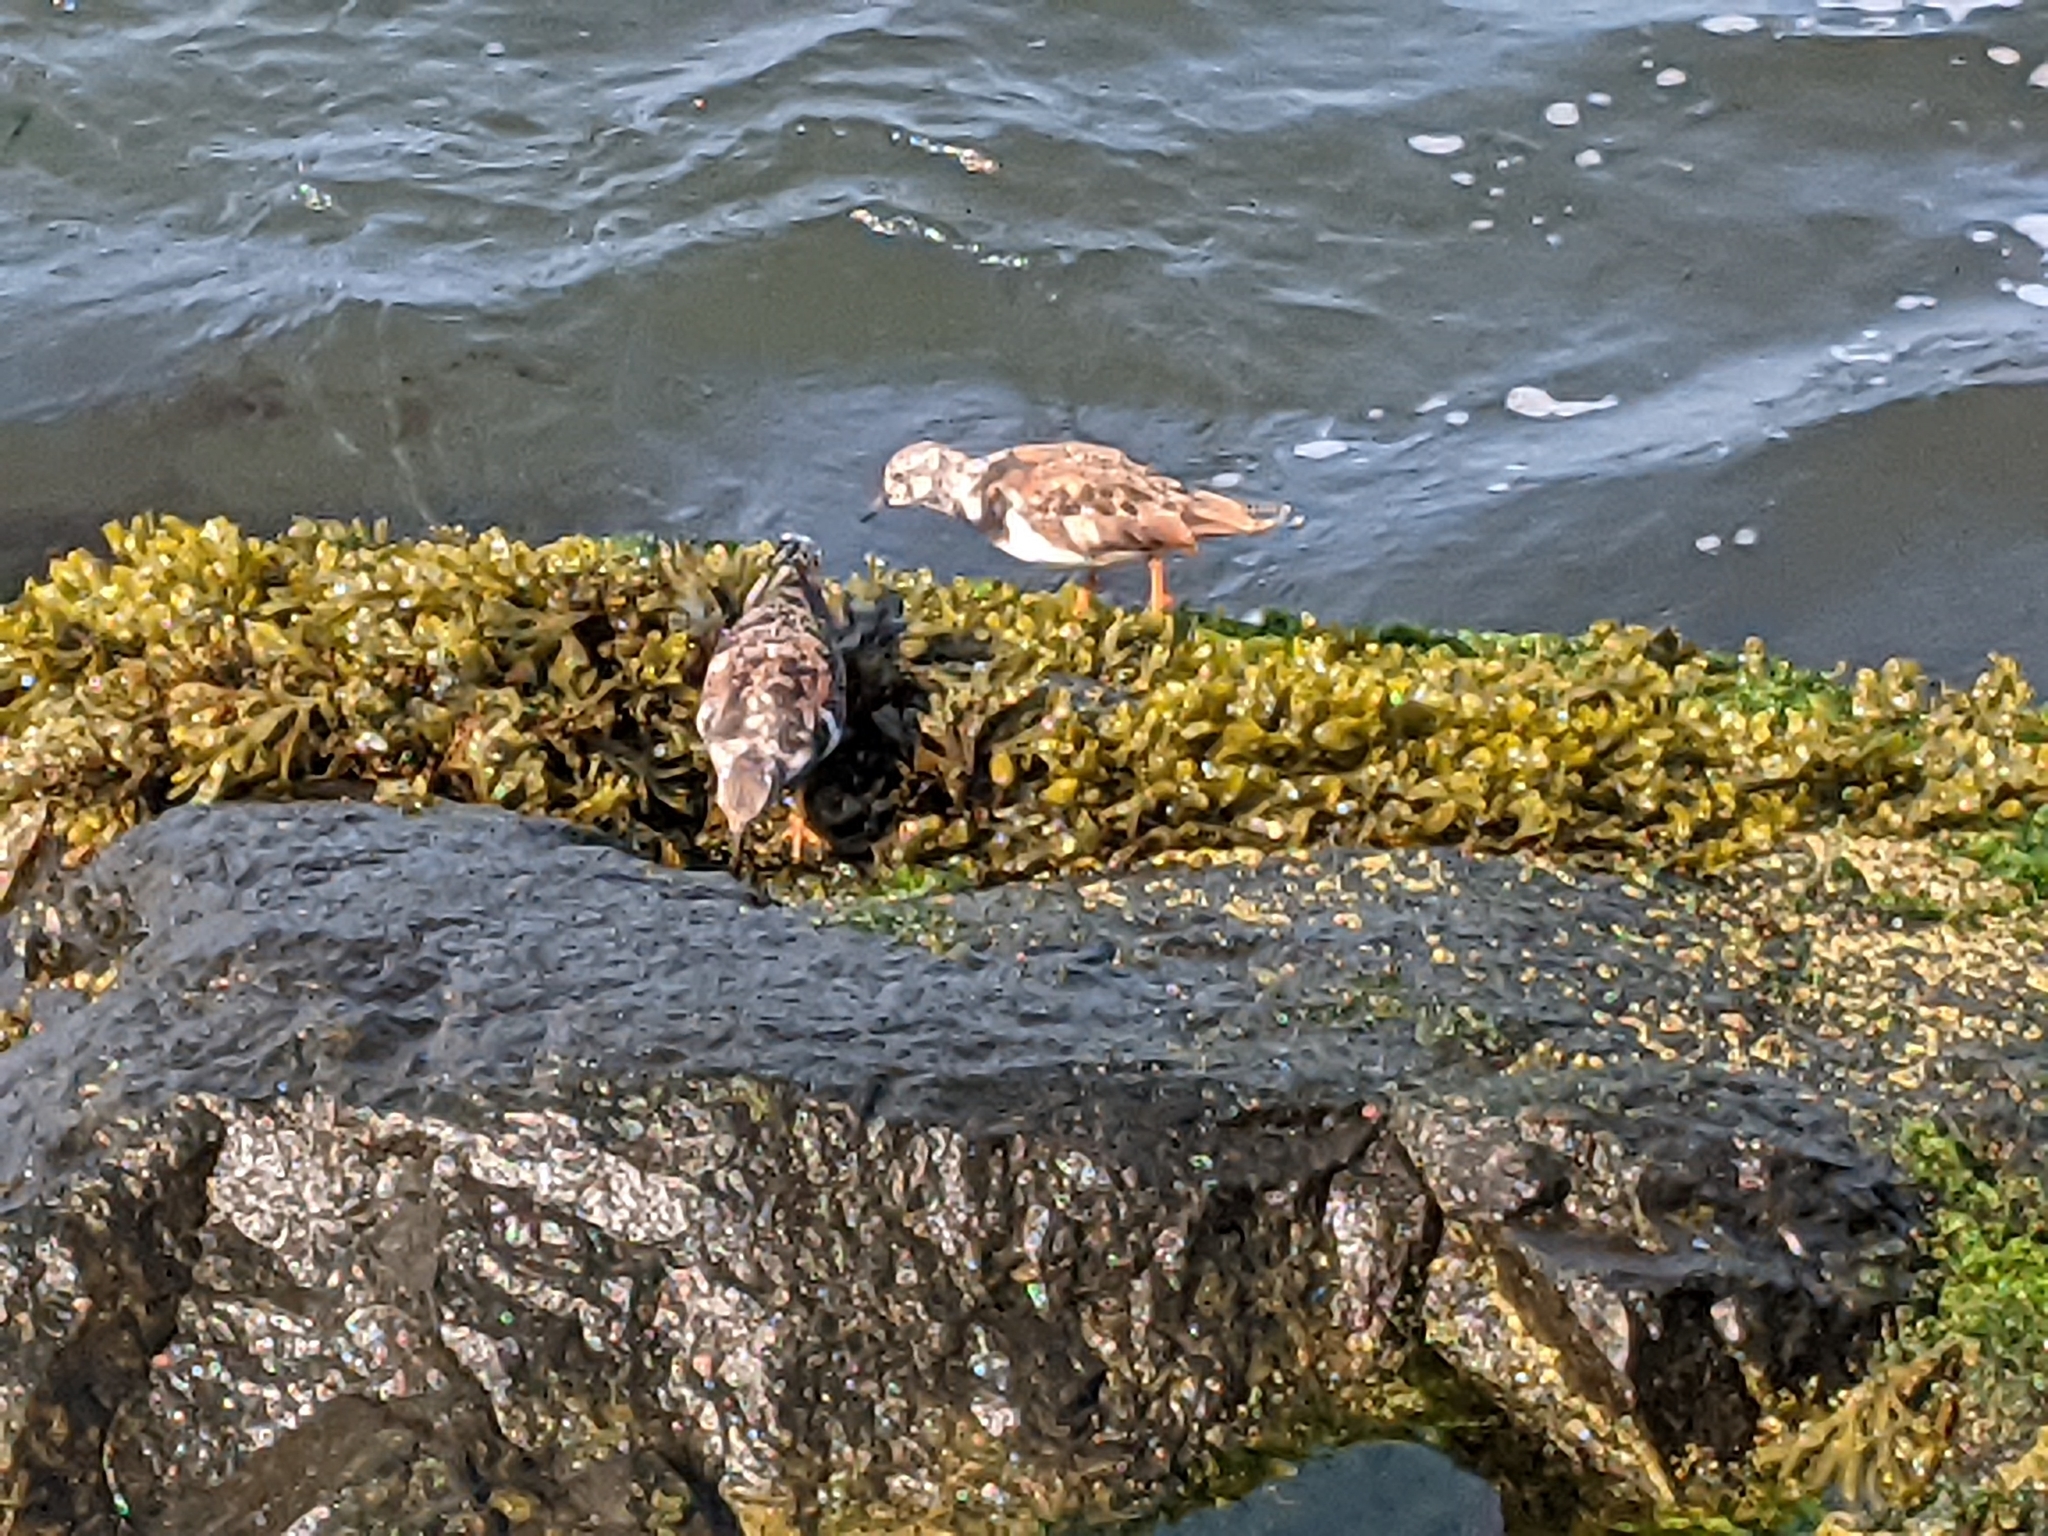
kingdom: Animalia
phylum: Chordata
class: Aves
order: Charadriiformes
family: Scolopacidae
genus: Arenaria
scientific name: Arenaria interpres
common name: Ruddy turnstone
